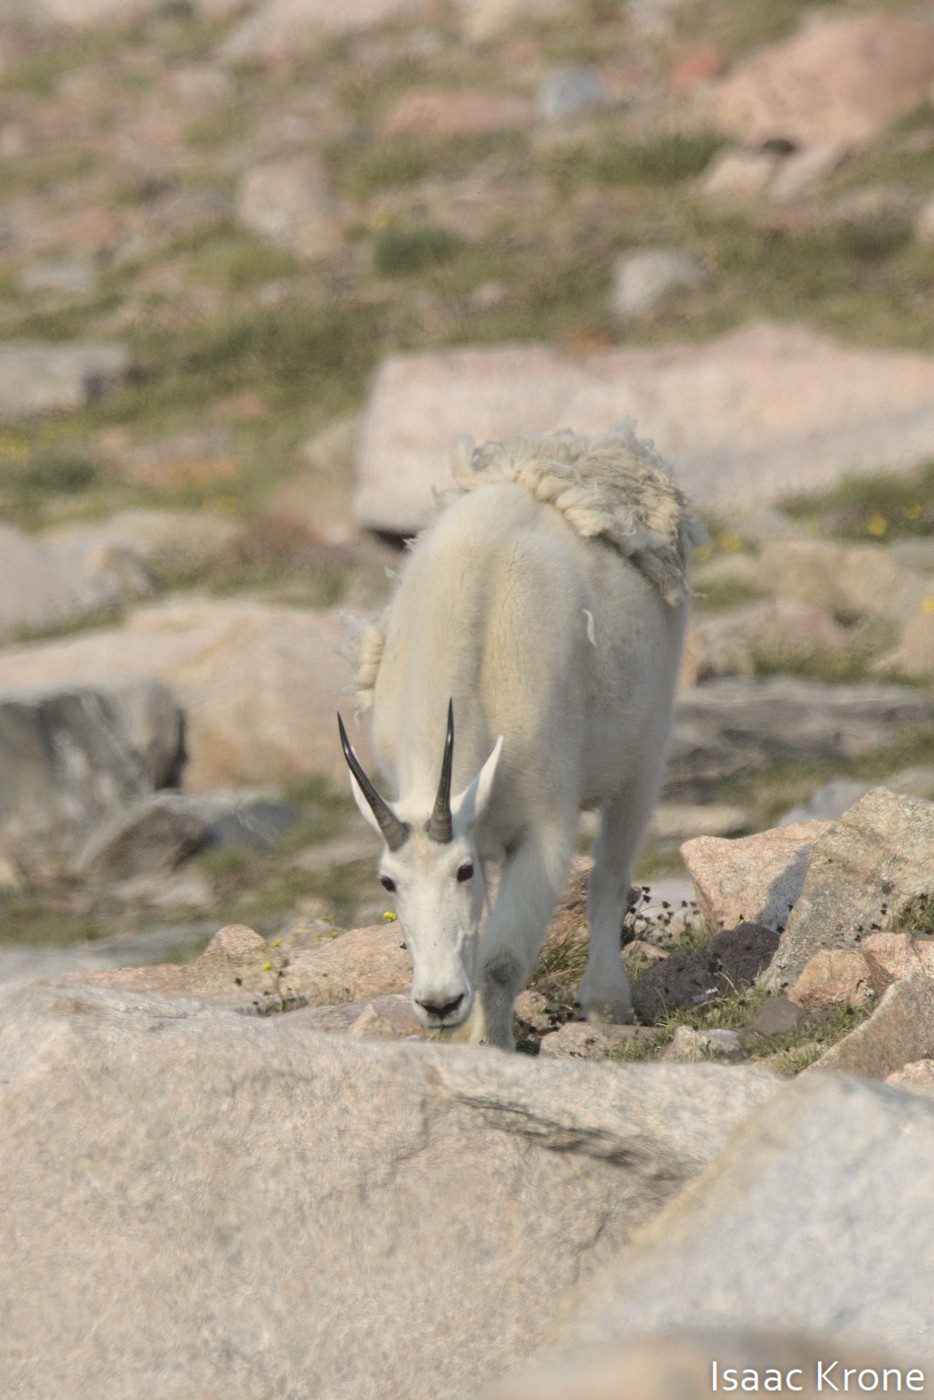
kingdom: Animalia
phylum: Chordata
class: Mammalia
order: Artiodactyla
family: Bovidae
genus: Oreamnos
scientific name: Oreamnos americanus
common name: Mountain goat
